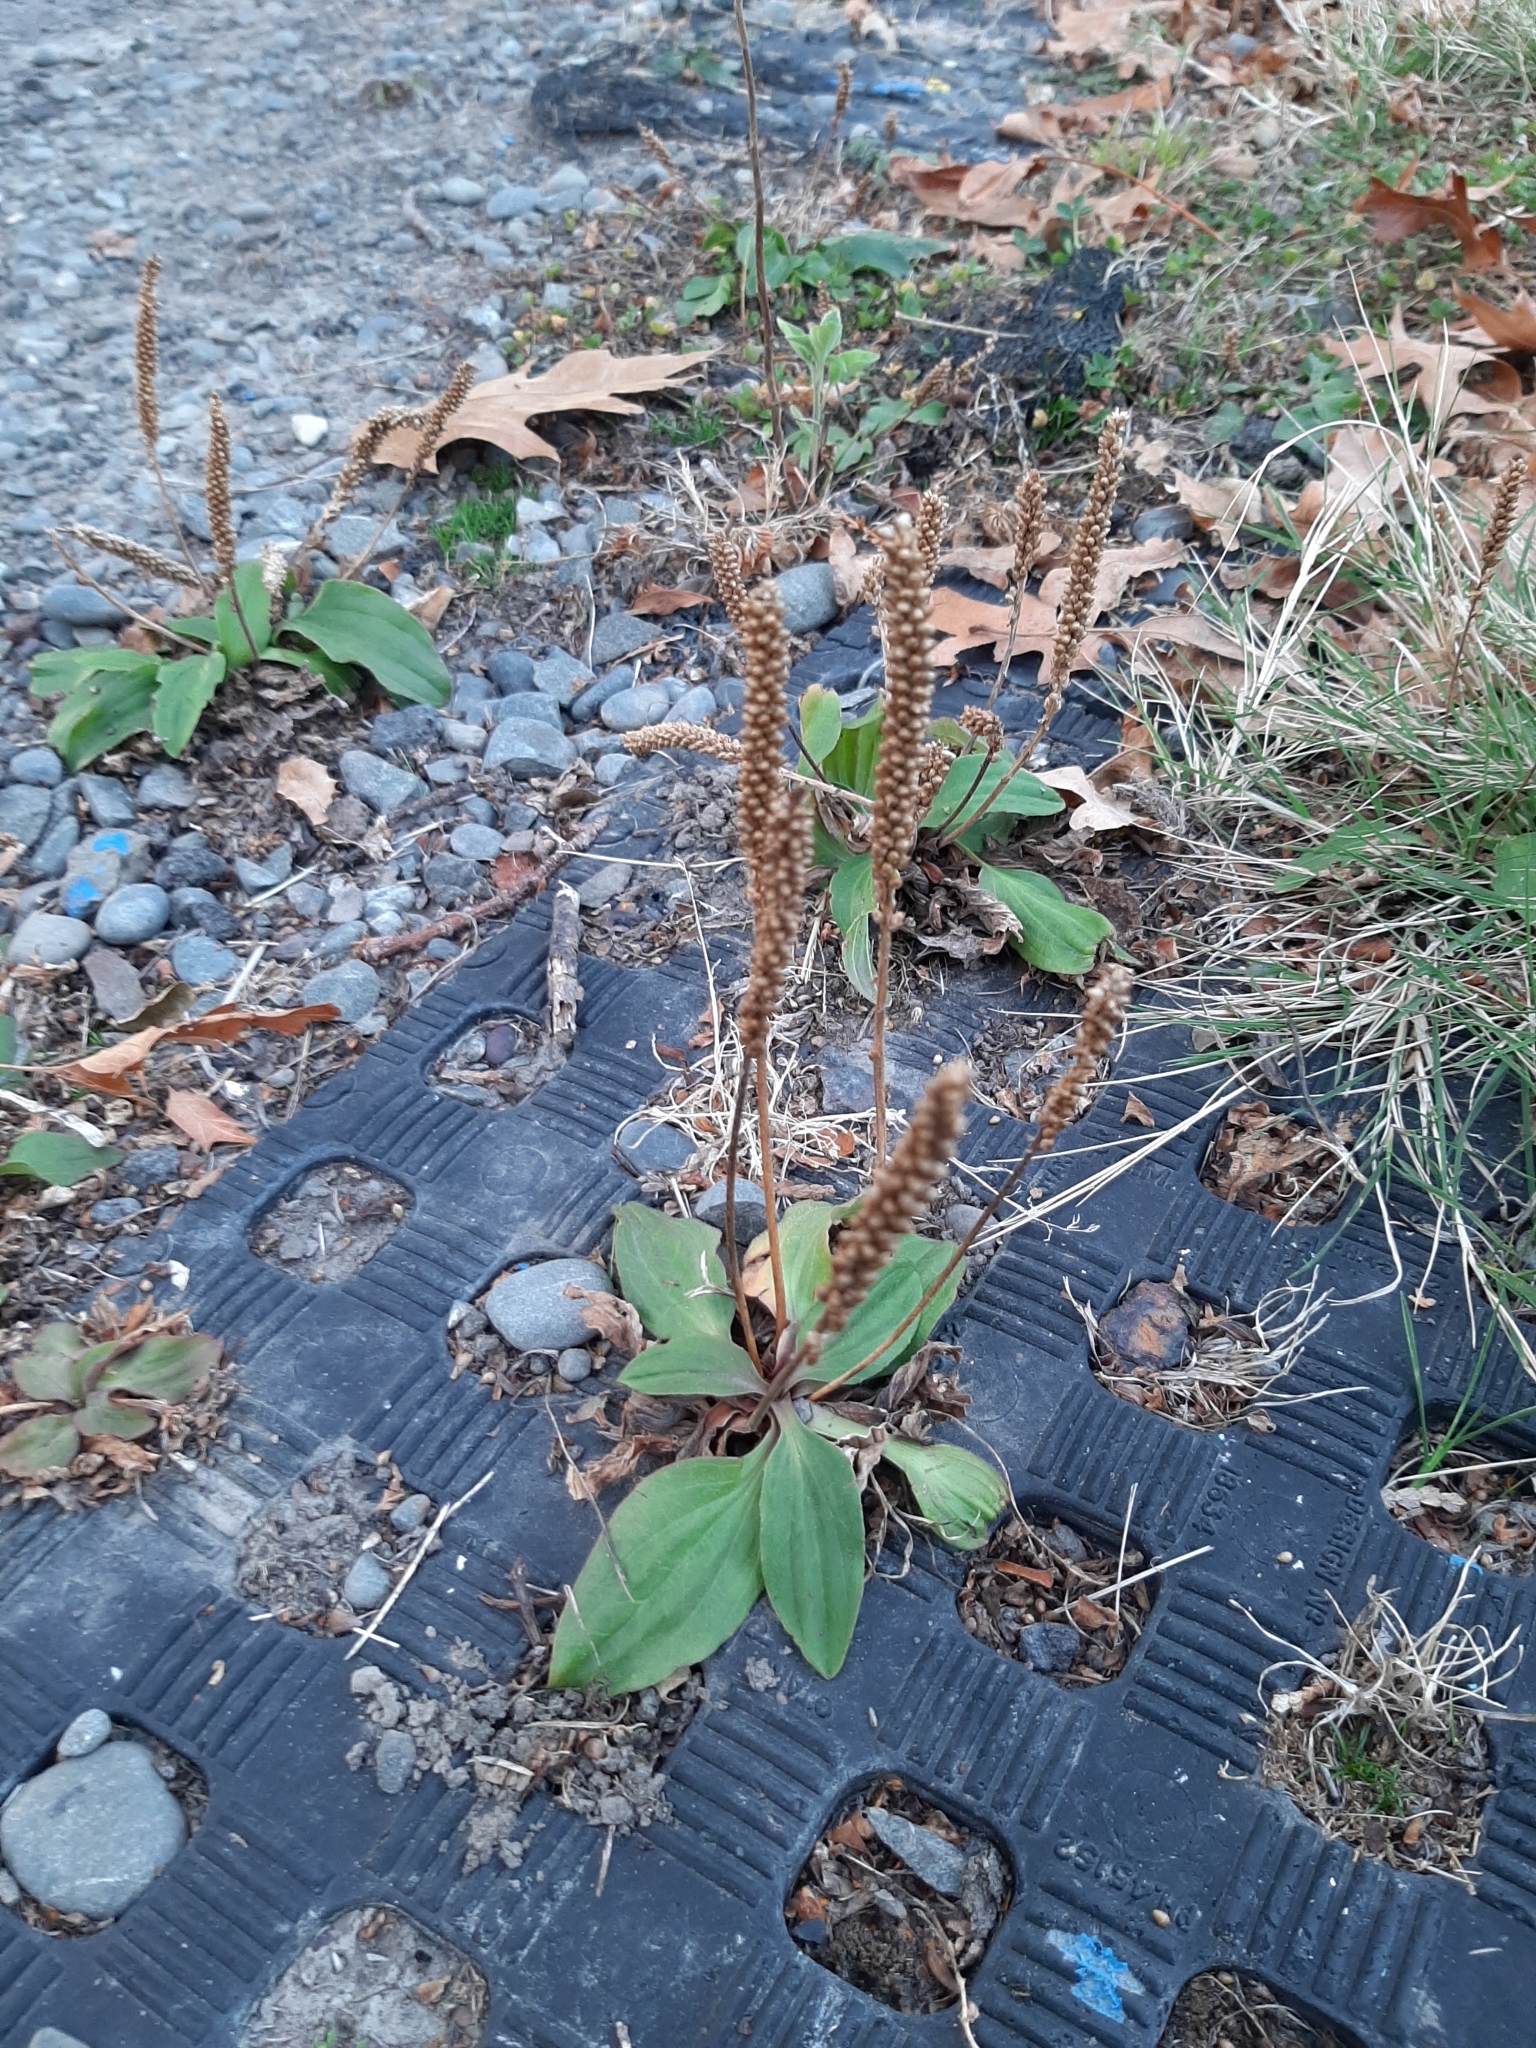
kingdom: Plantae
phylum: Tracheophyta
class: Magnoliopsida
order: Lamiales
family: Plantaginaceae
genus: Plantago
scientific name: Plantago major
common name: Common plantain
